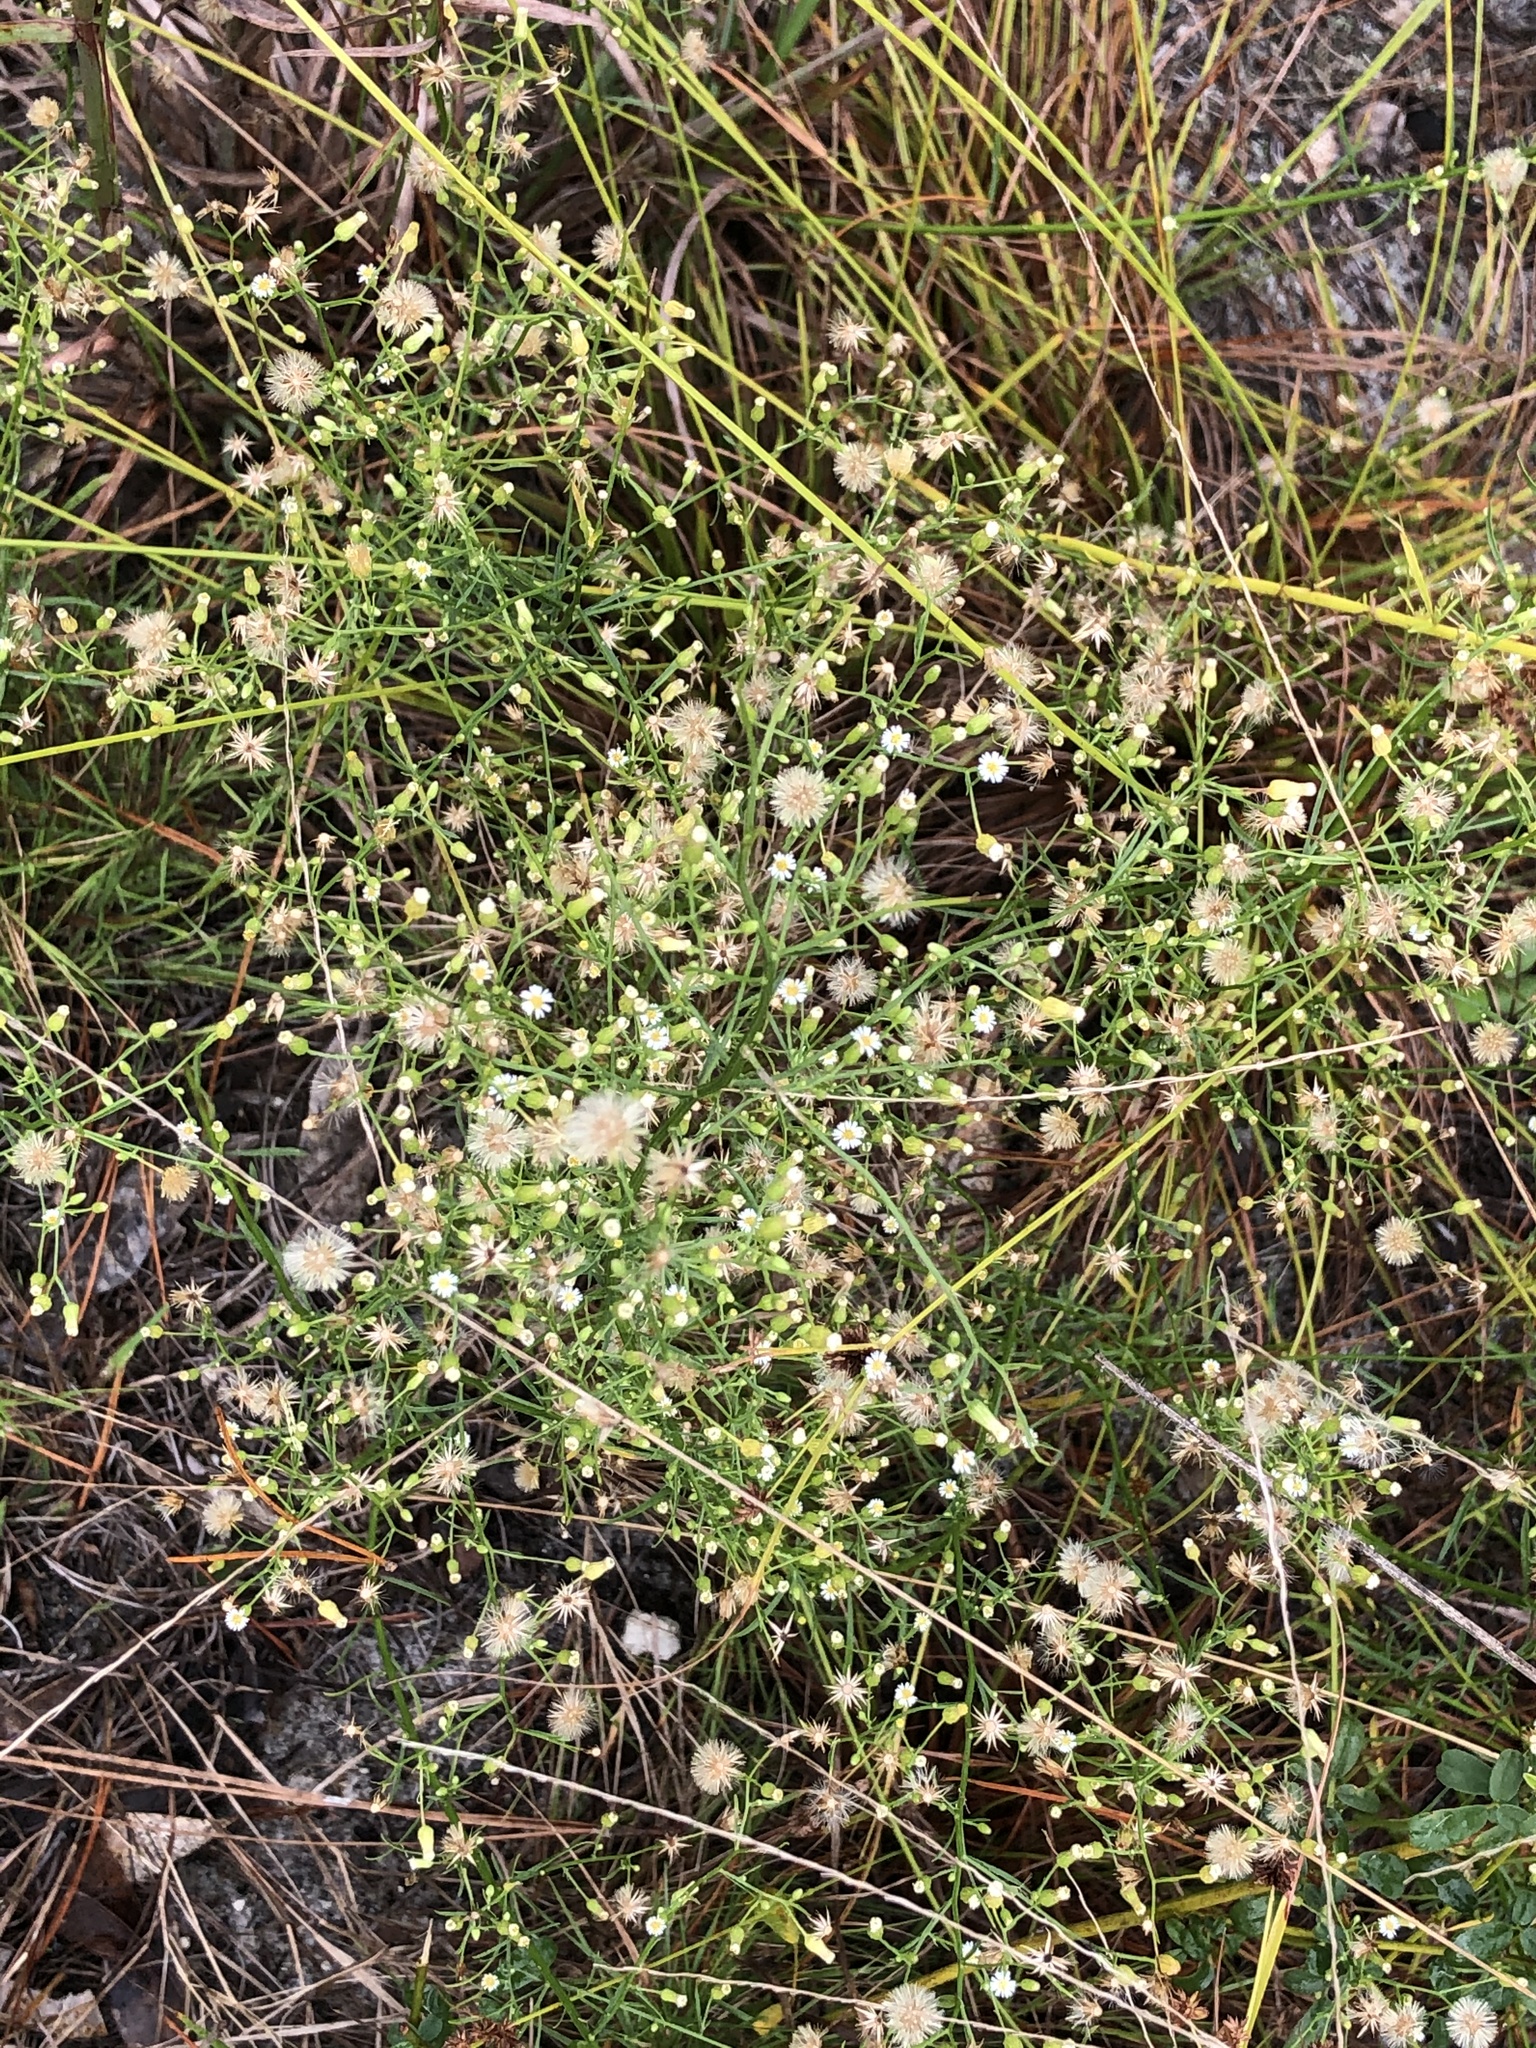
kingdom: Plantae
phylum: Tracheophyta
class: Magnoliopsida
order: Asterales
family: Asteraceae
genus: Erigeron
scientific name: Erigeron canadensis
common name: Canadian fleabane
